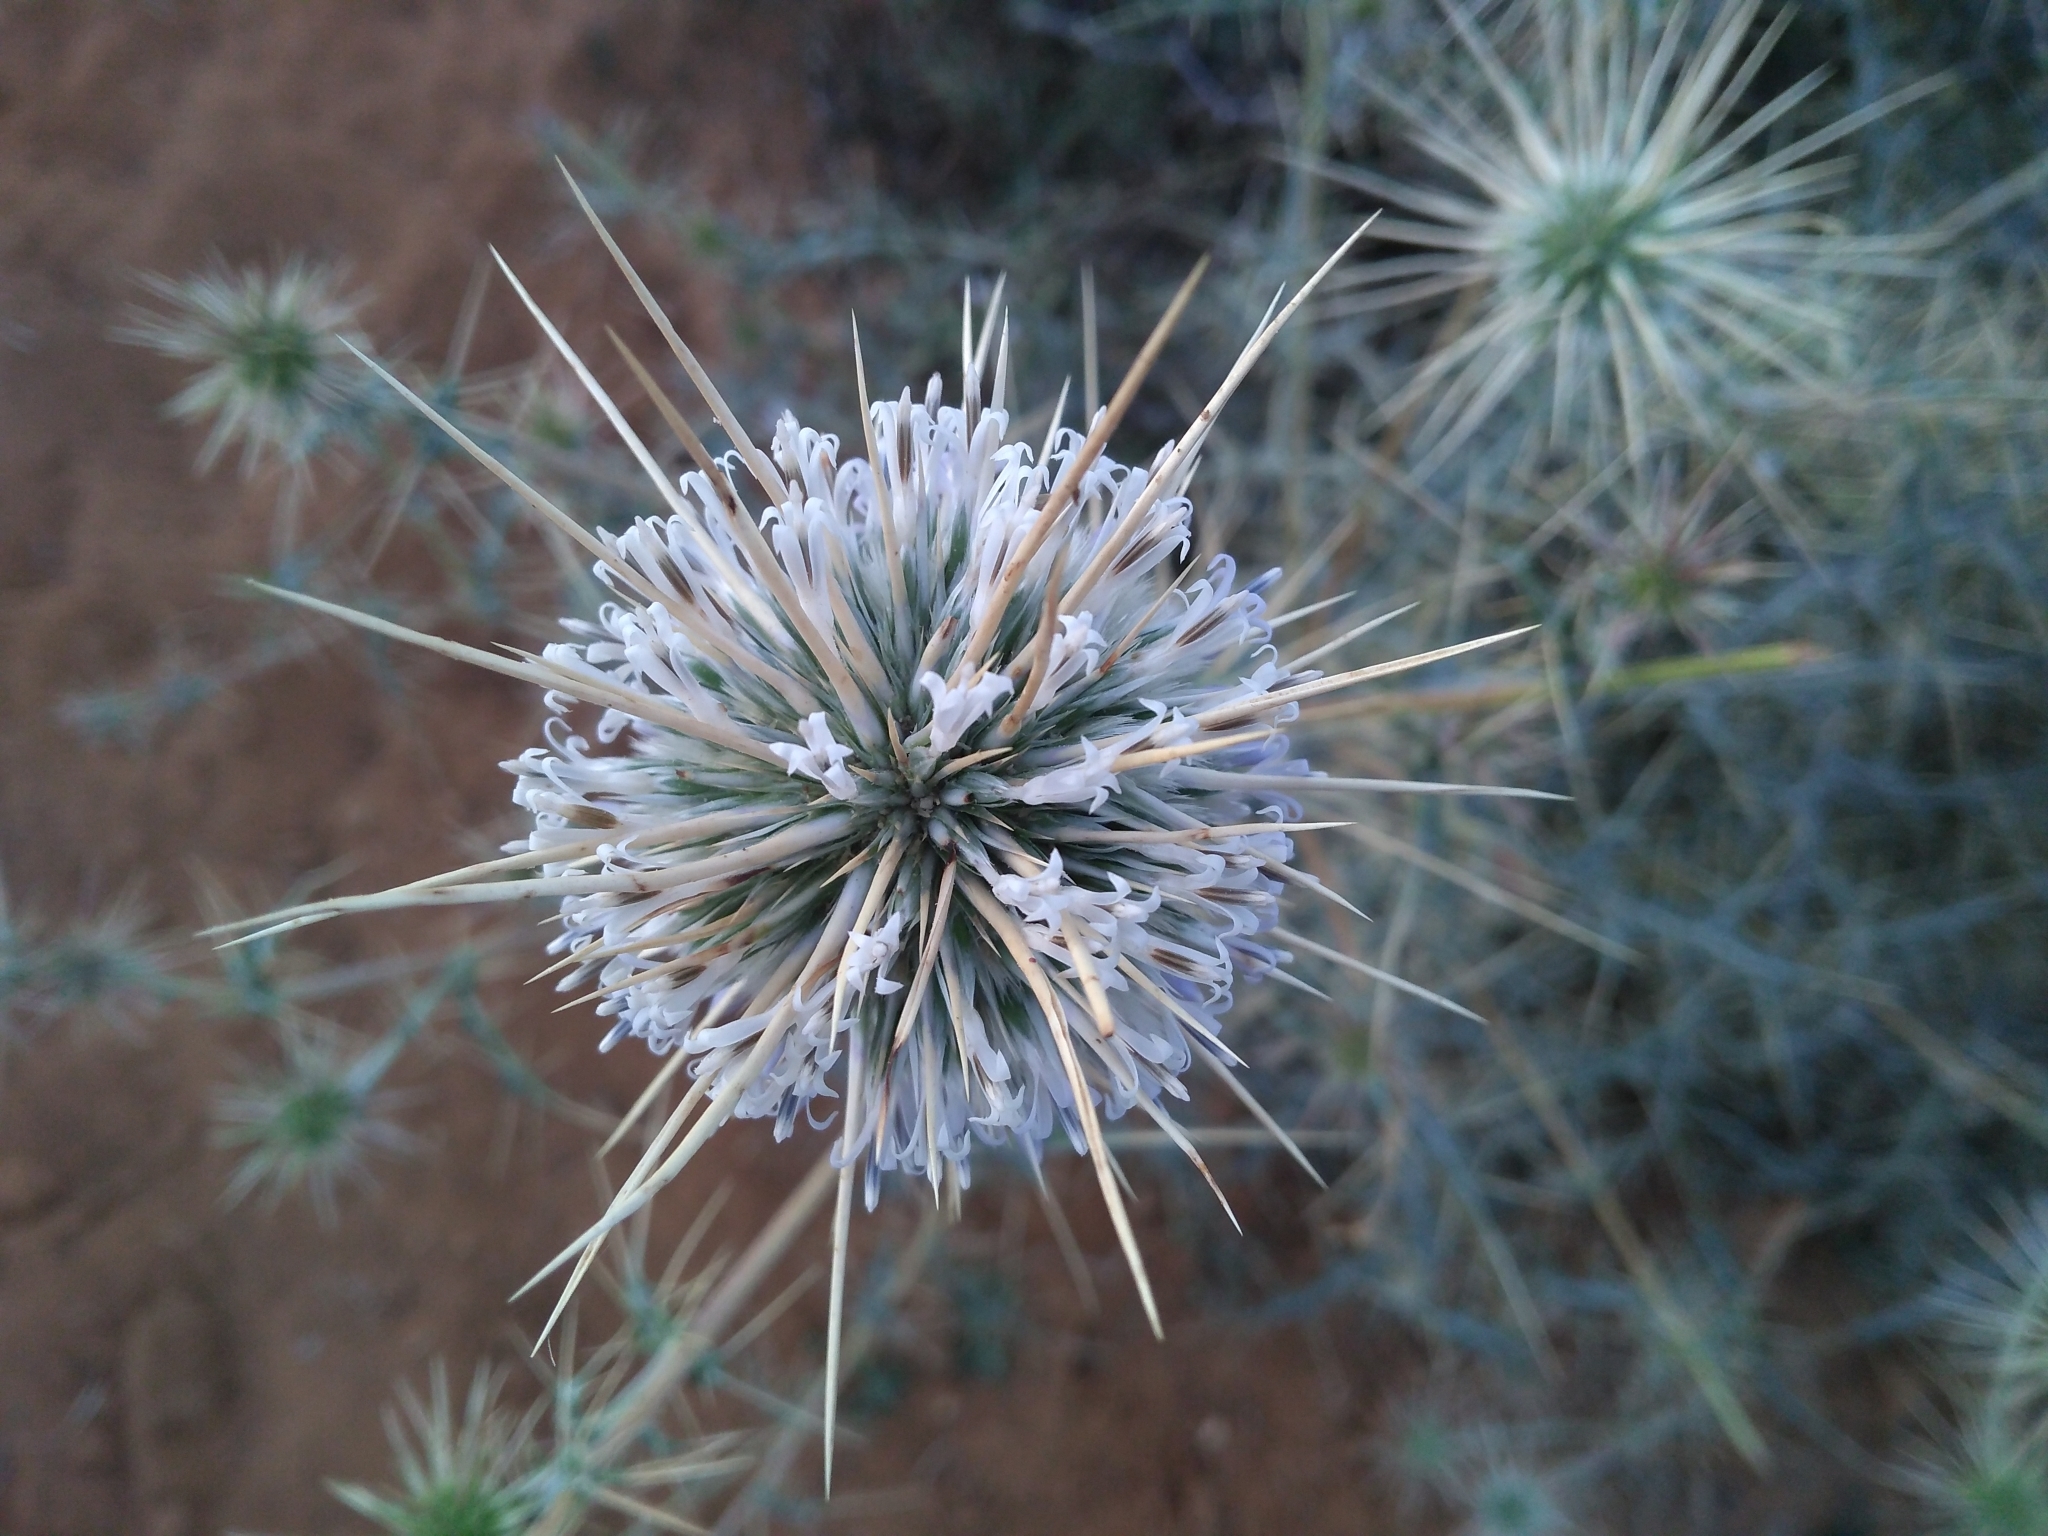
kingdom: Plantae
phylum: Tracheophyta
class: Magnoliopsida
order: Asterales
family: Asteraceae
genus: Echinops
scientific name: Echinops echinatus
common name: Indian globe thistle
